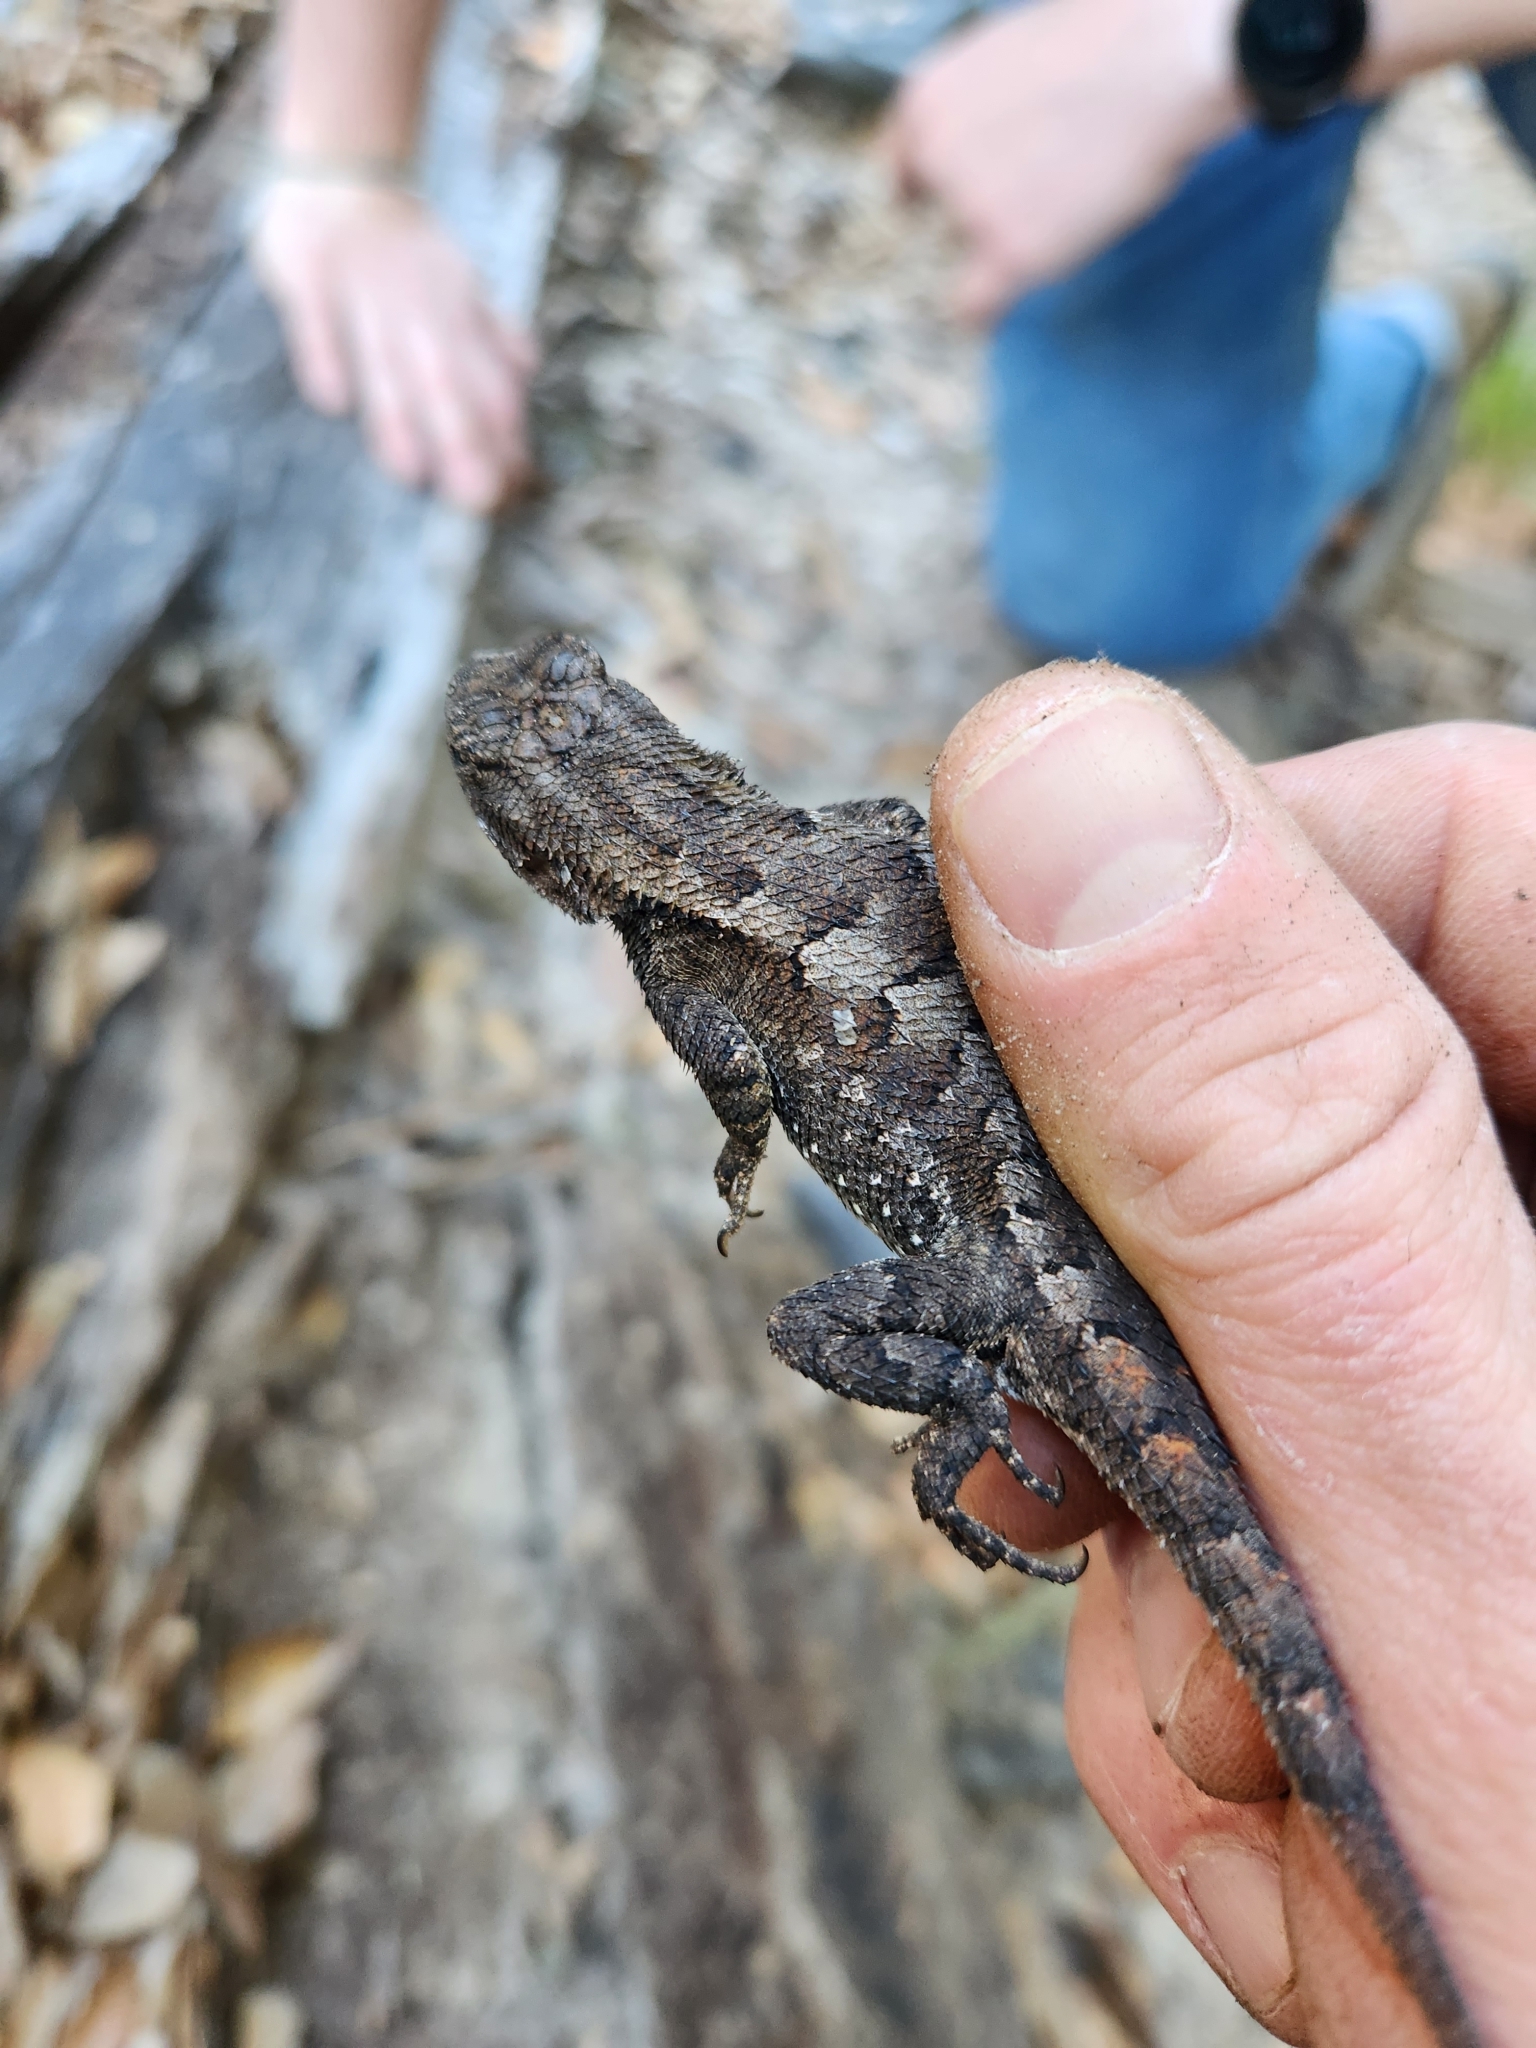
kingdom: Animalia
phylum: Chordata
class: Squamata
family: Phrynosomatidae
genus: Sceloporus
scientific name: Sceloporus consobrinus
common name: Southern prairie lizard
